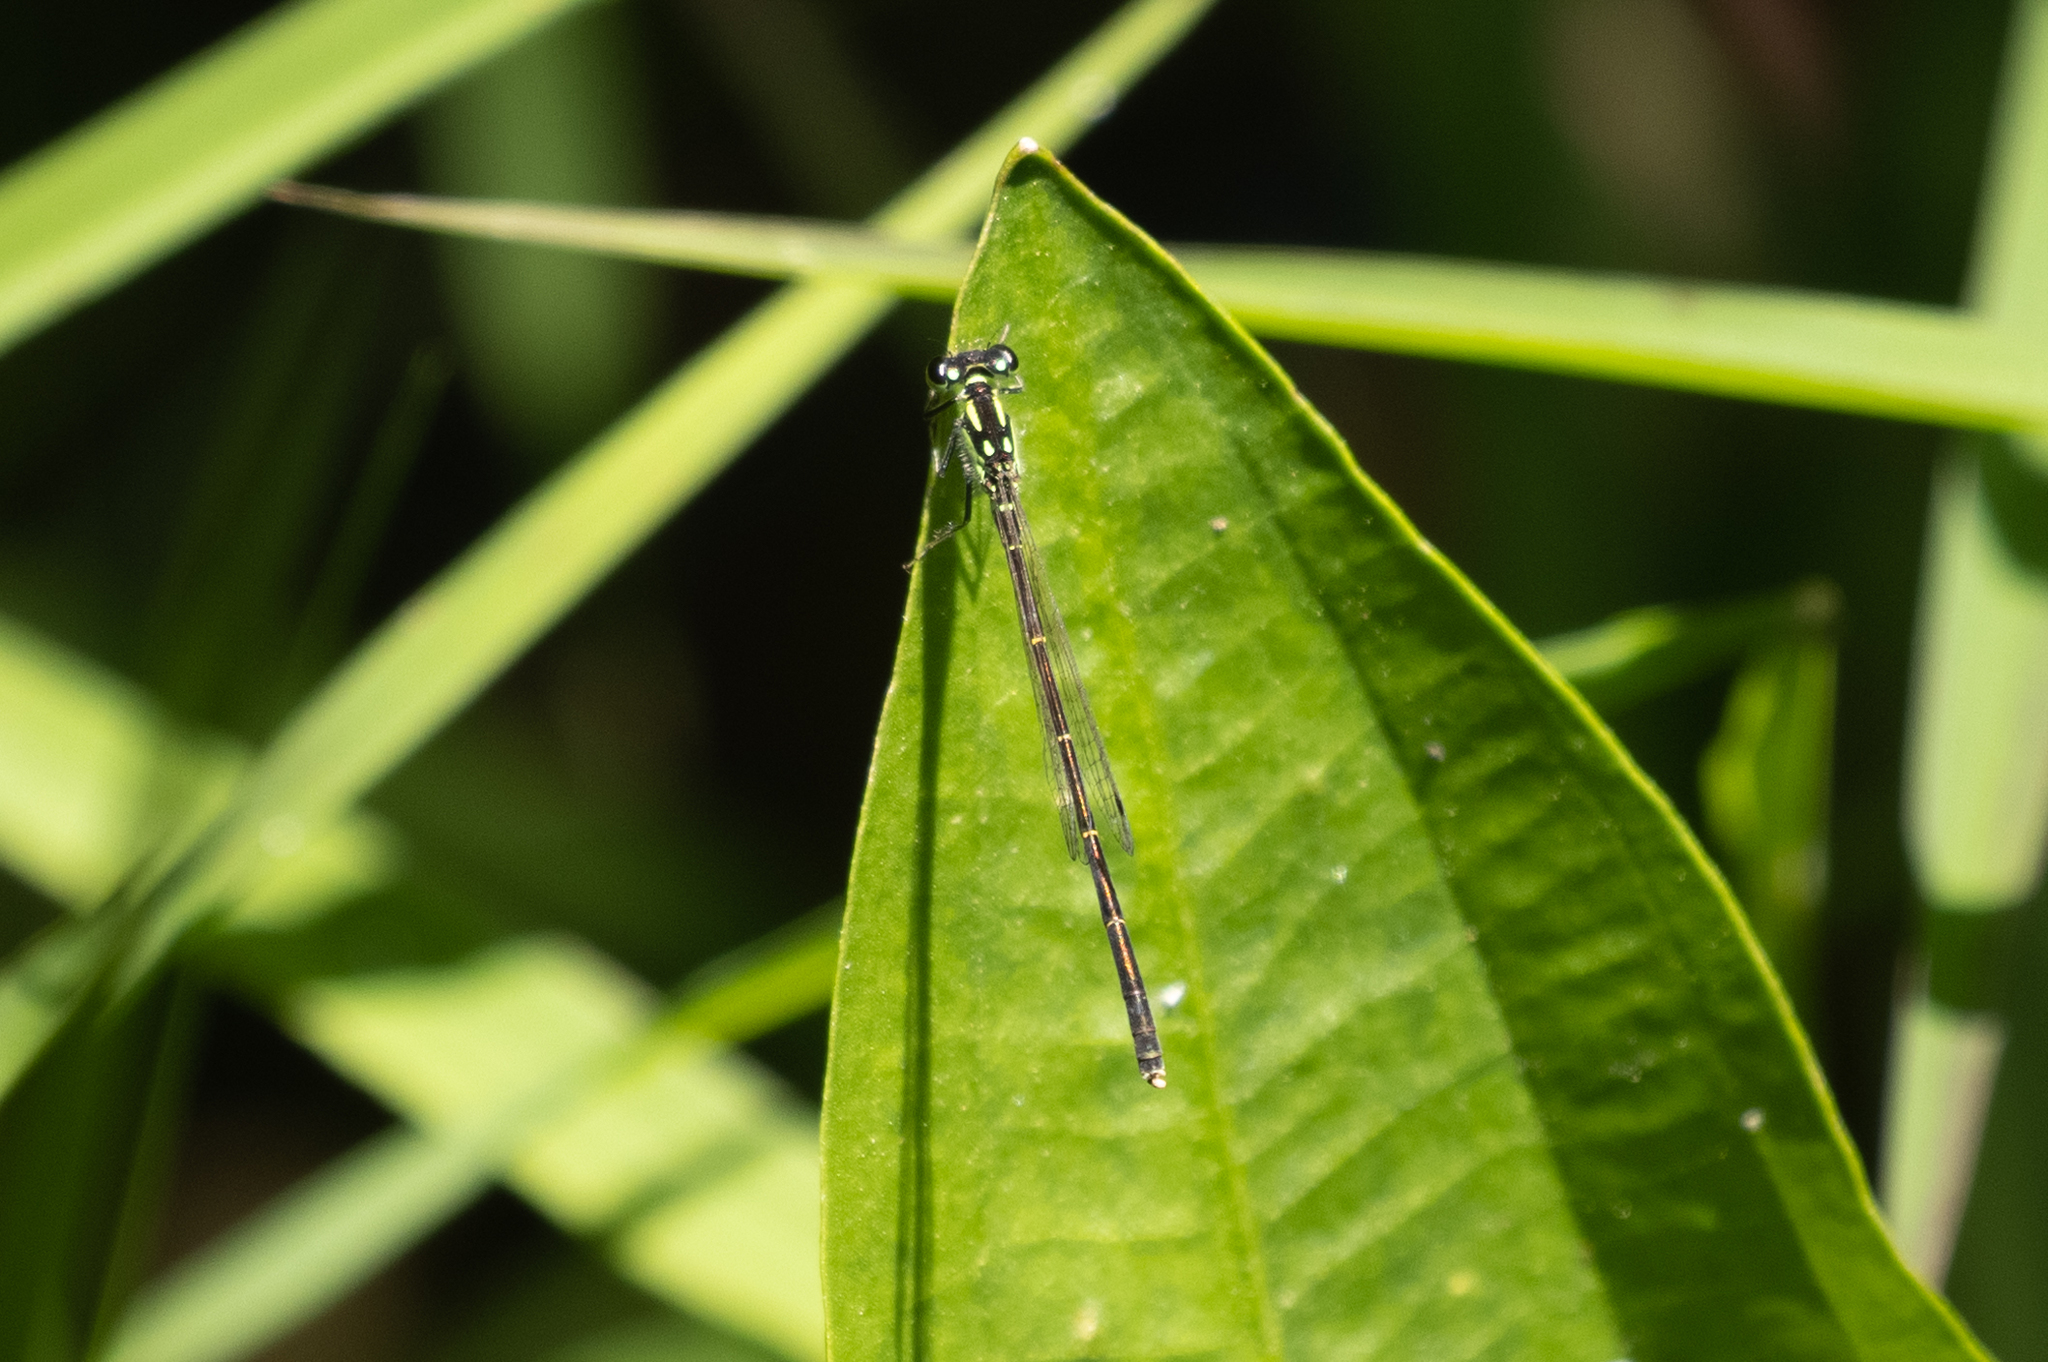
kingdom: Animalia
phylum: Arthropoda
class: Insecta
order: Odonata
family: Coenagrionidae
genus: Ischnura
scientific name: Ischnura posita
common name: Fragile forktail
